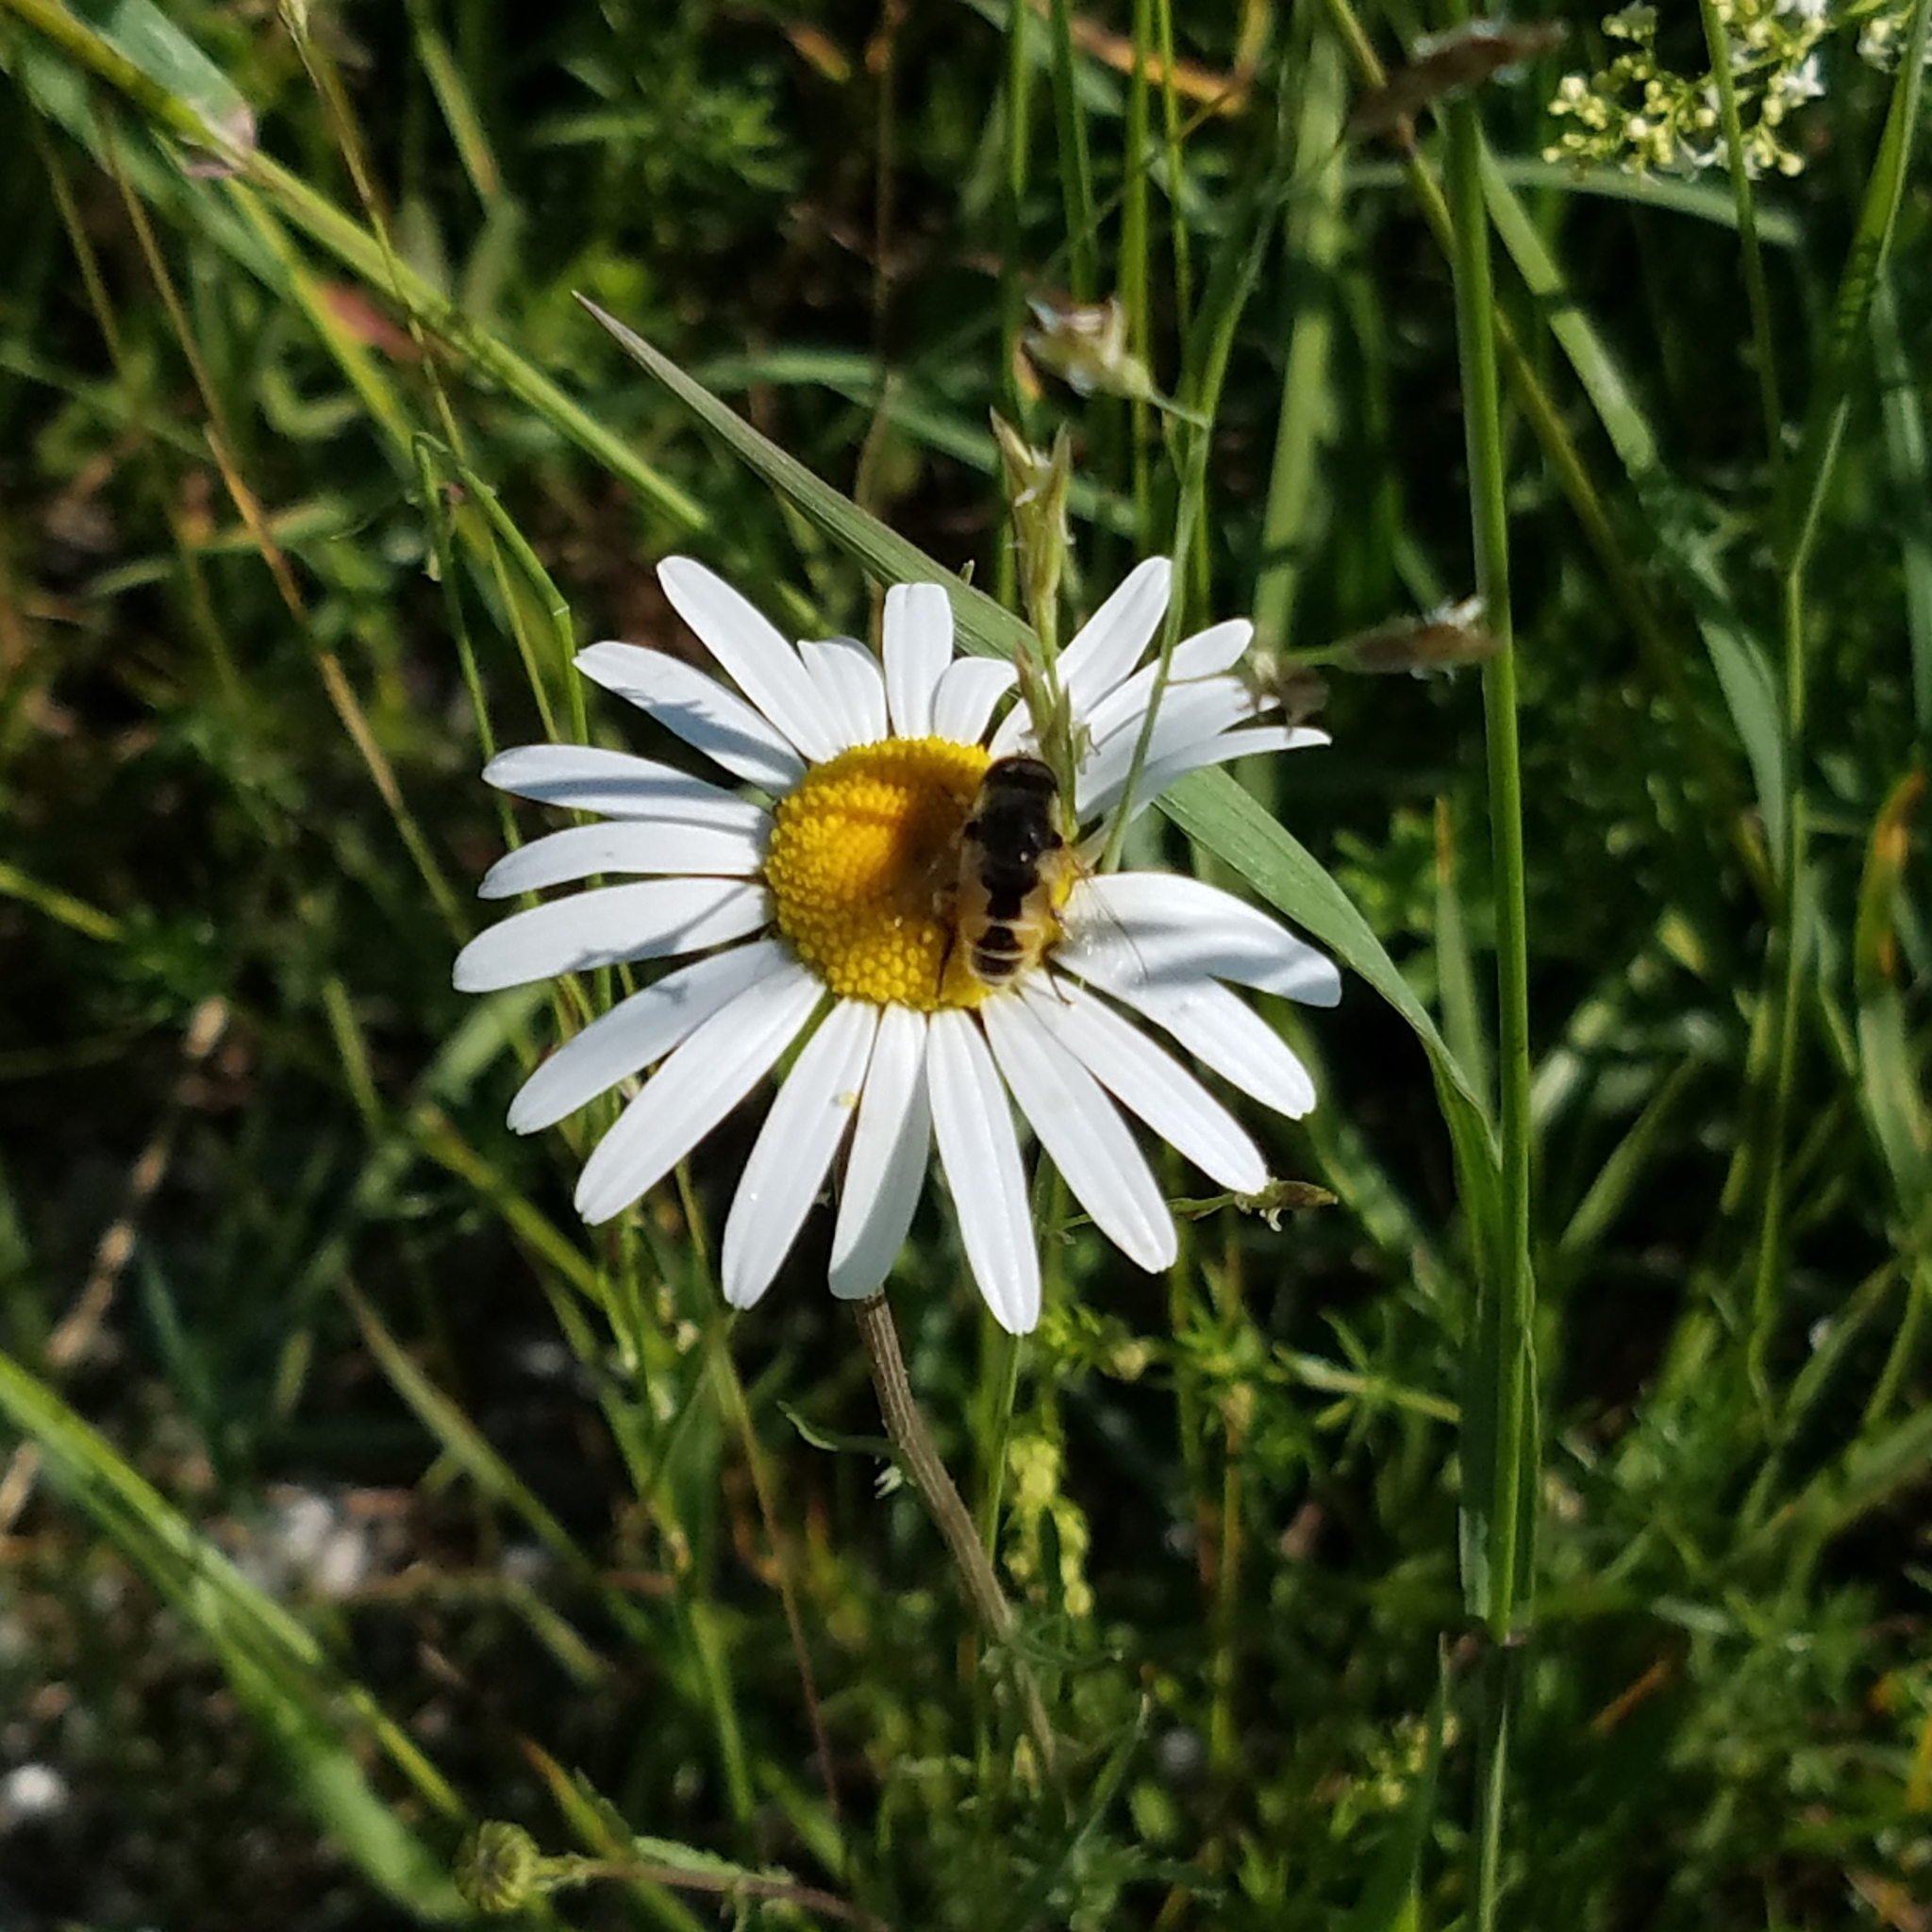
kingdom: Animalia
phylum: Arthropoda
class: Insecta
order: Diptera
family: Syrphidae
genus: Eristalis
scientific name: Eristalis arbustorum
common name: Hover fly
